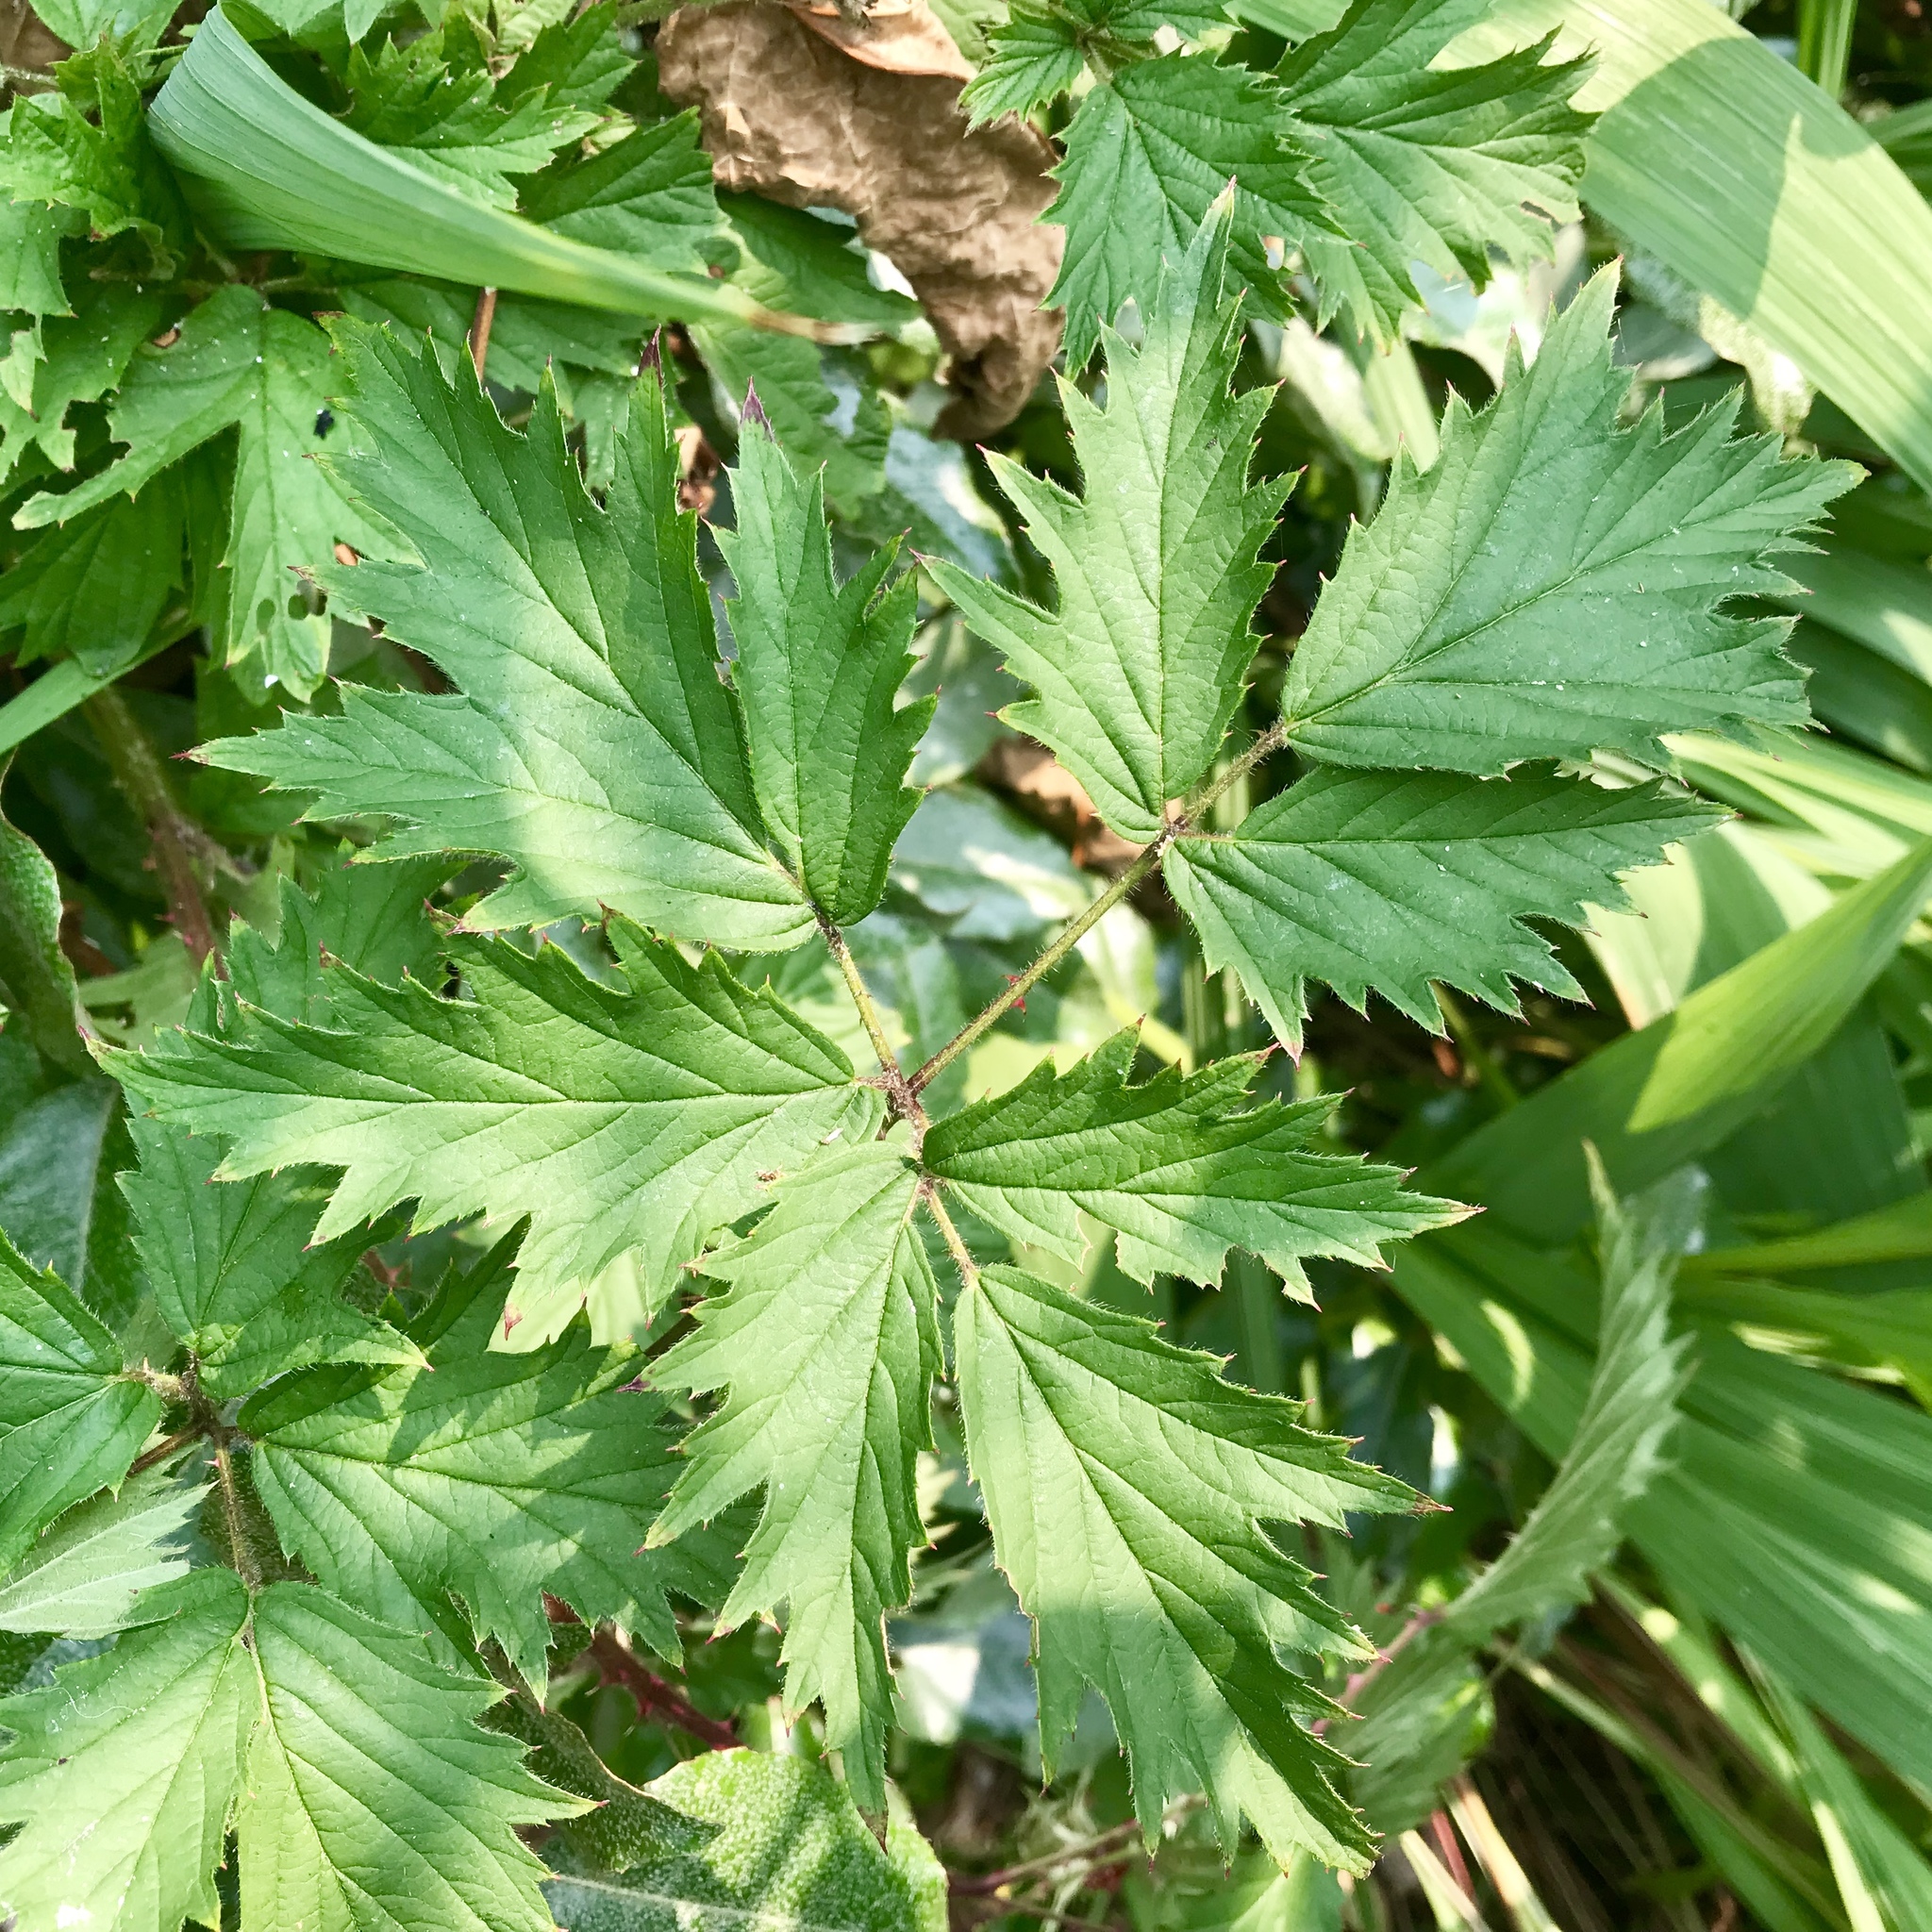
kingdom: Plantae
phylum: Tracheophyta
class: Magnoliopsida
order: Rosales
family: Rosaceae
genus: Rubus
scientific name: Rubus laciniatus
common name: Evergreen blackberry
